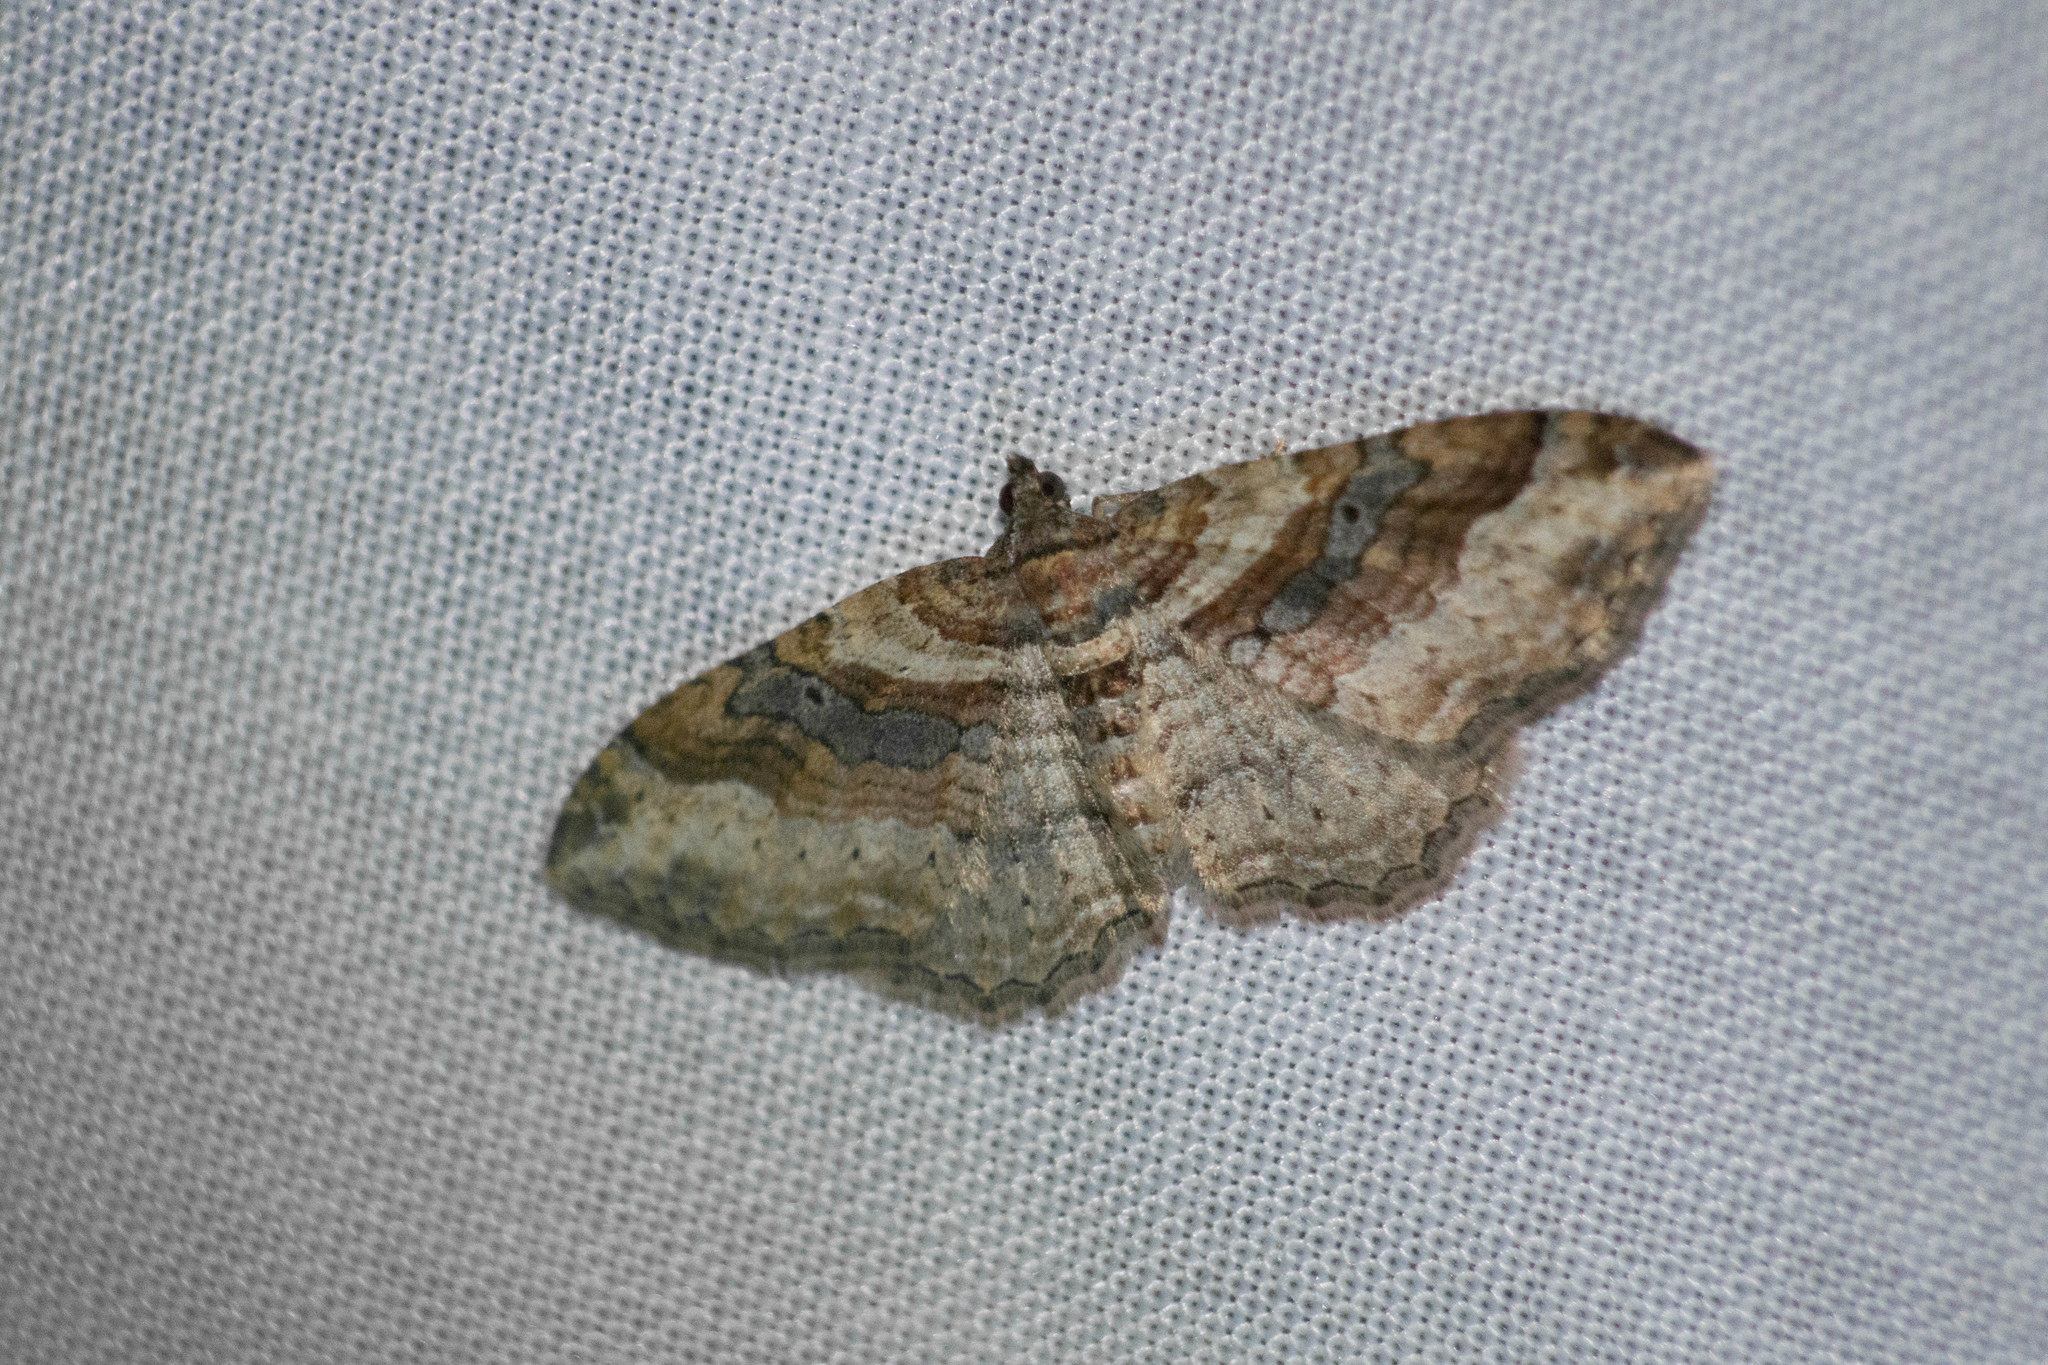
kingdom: Animalia
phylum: Arthropoda
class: Insecta
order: Lepidoptera
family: Geometridae
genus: Costaconvexa
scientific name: Costaconvexa centrostrigaria
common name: Bent-line carpet
